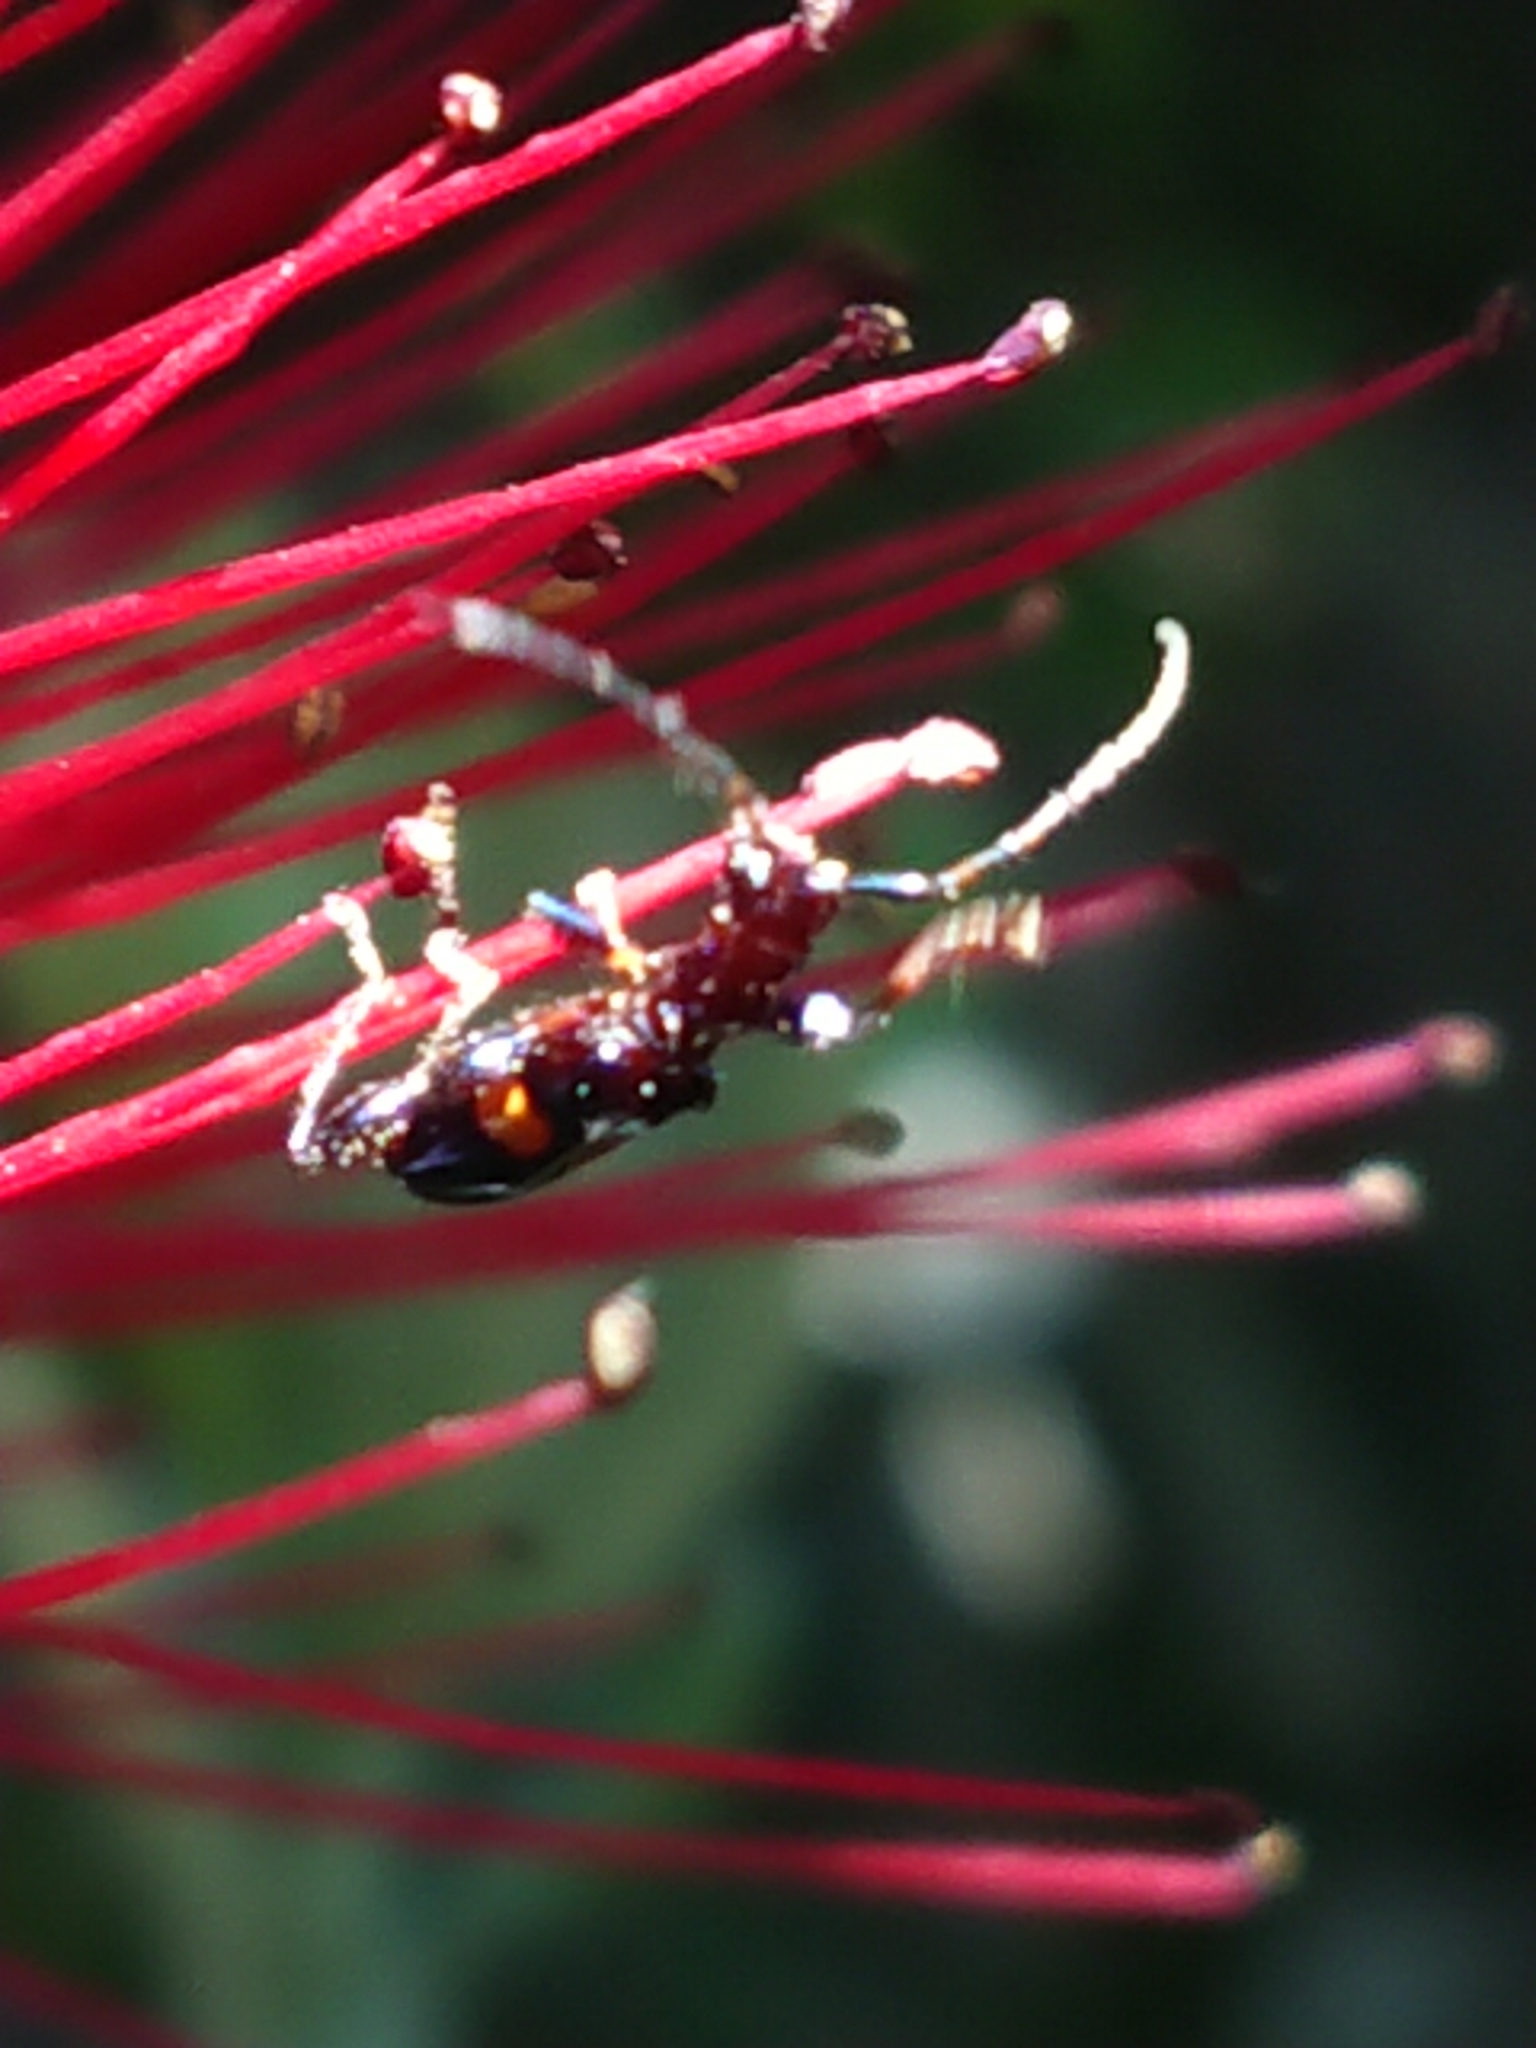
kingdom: Animalia
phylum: Arthropoda
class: Insecta
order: Coleoptera
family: Cerambycidae
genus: Zorion
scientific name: Zorion guttigerum
